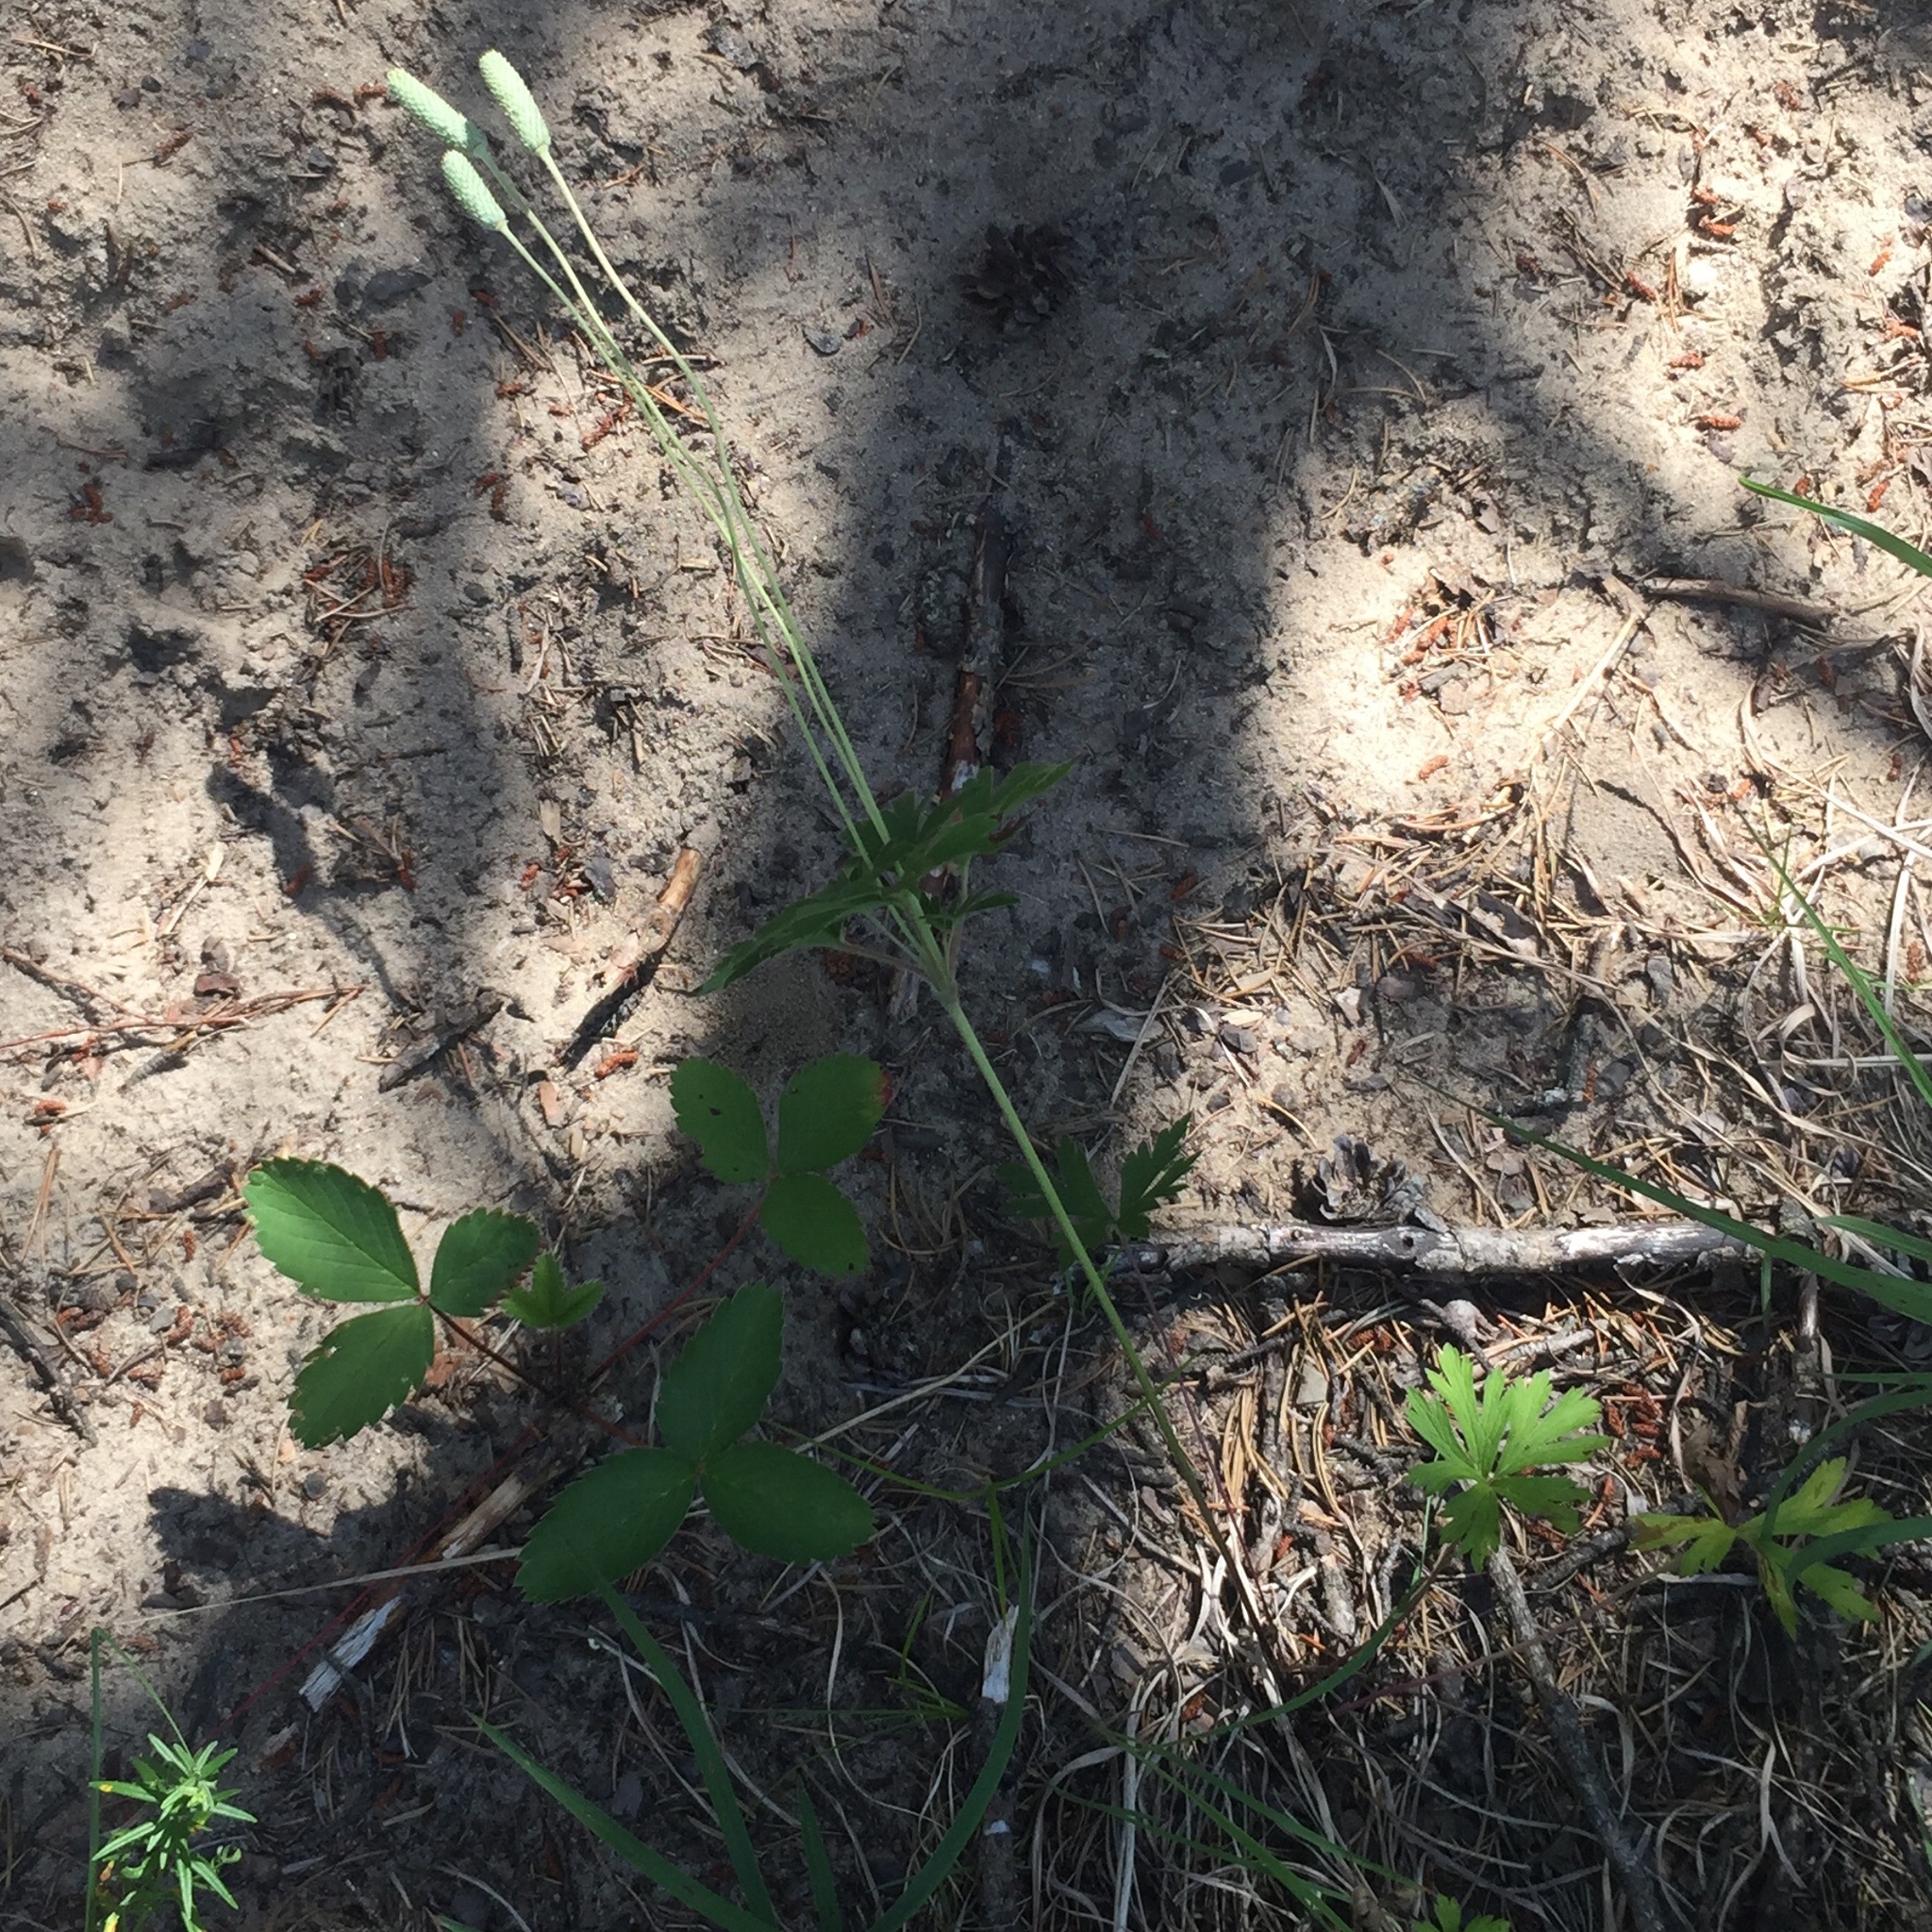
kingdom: Plantae
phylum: Tracheophyta
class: Magnoliopsida
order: Ranunculales
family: Ranunculaceae
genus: Anemone
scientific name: Anemone cylindrica
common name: Candle anemone
